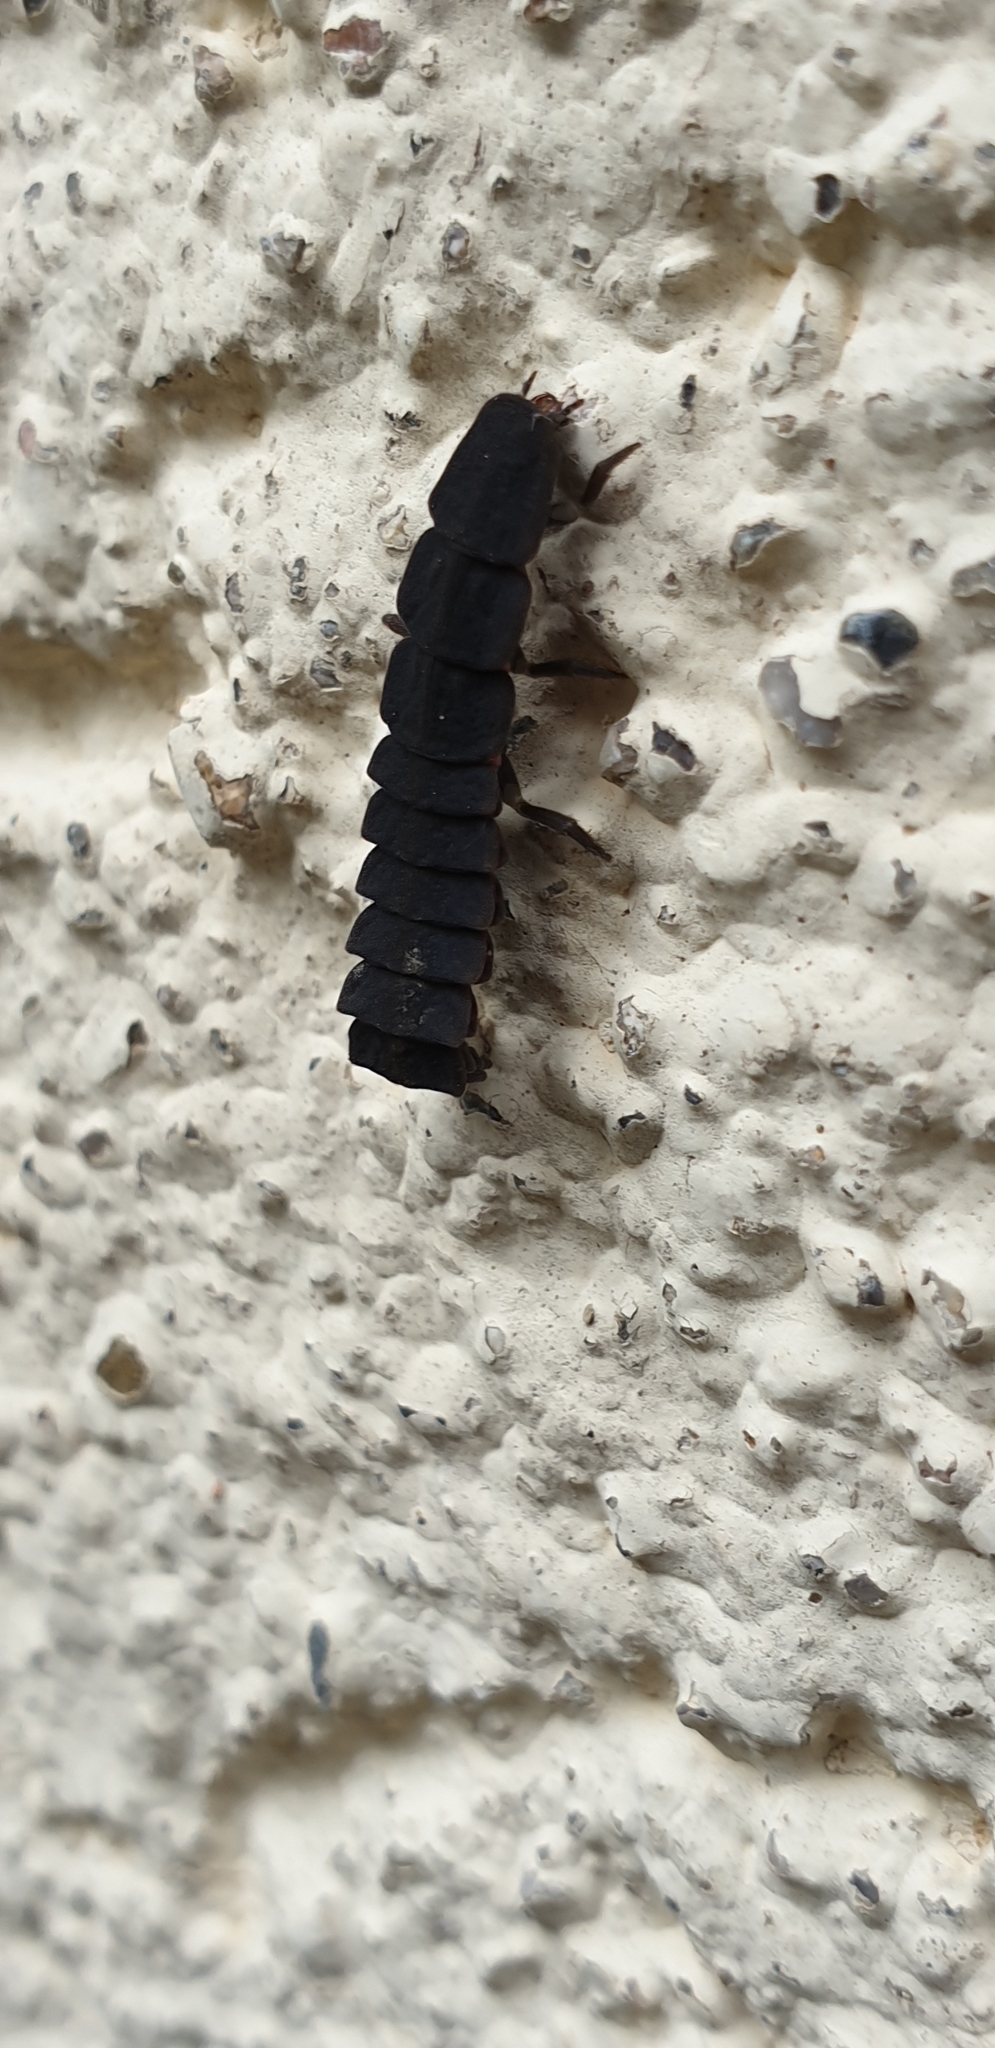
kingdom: Animalia
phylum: Arthropoda
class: Insecta
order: Coleoptera
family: Lampyridae
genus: Nyctophila
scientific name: Nyctophila reichii
